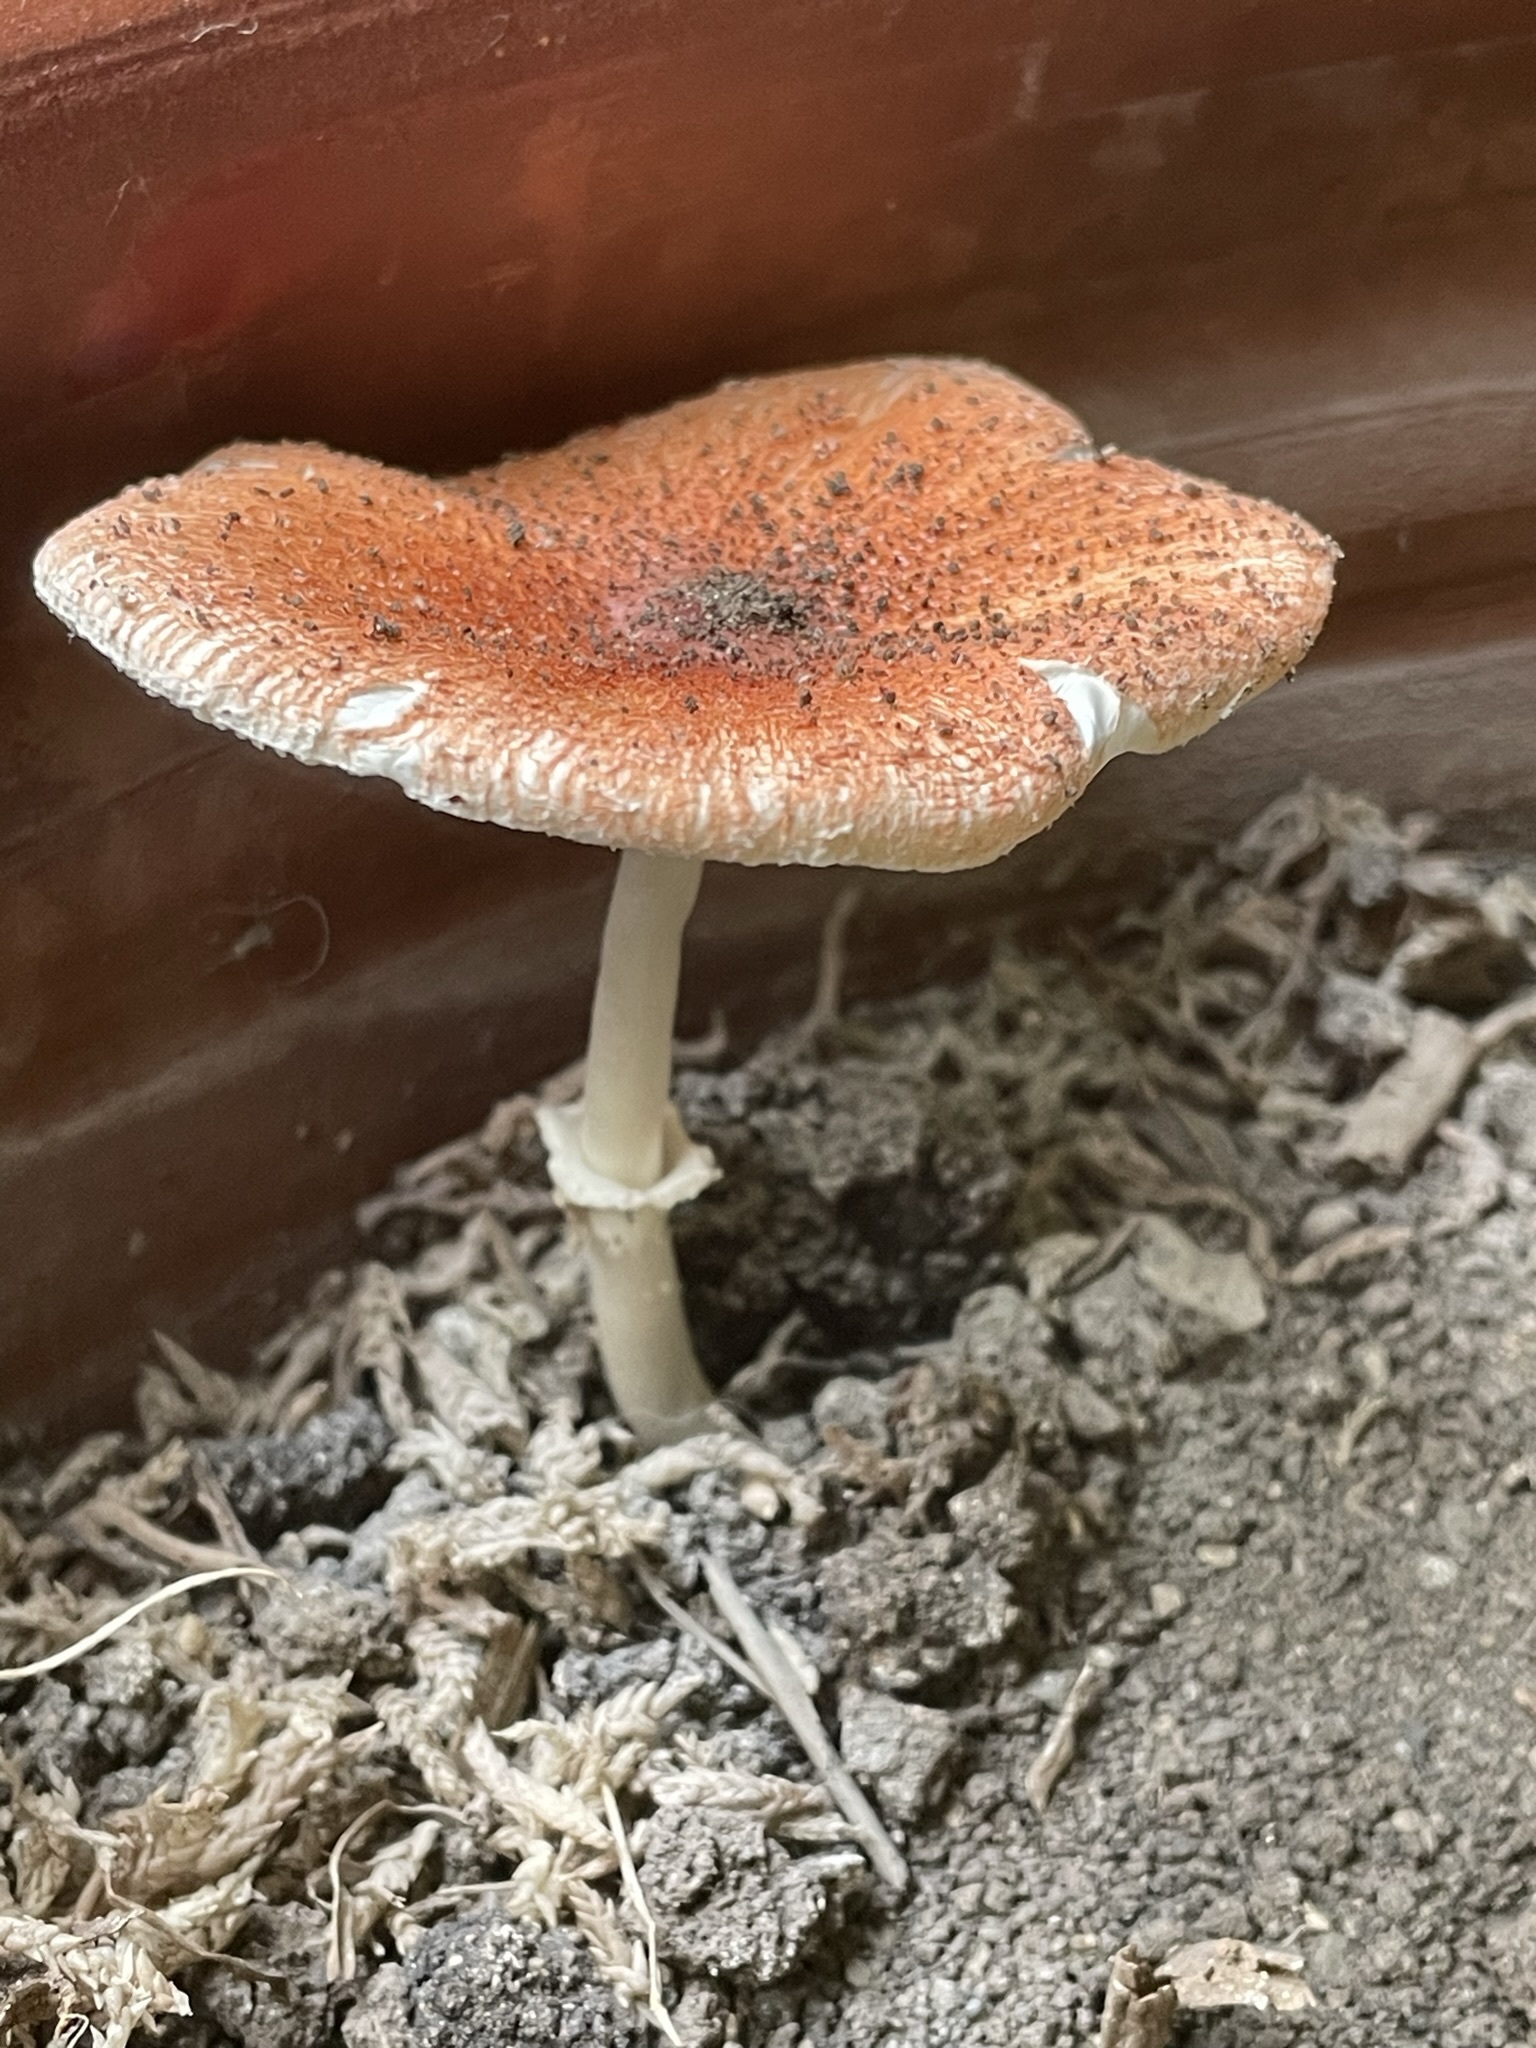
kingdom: Fungi
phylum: Basidiomycota
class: Agaricomycetes
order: Agaricales
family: Agaricaceae
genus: Leucoagaricus
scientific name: Leucoagaricus rubrotinctus
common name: Ruby dapperling
